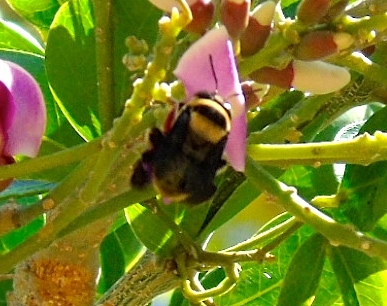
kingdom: Animalia
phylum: Arthropoda
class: Insecta
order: Hymenoptera
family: Apidae
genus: Centris
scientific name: Centris flavofasciata
